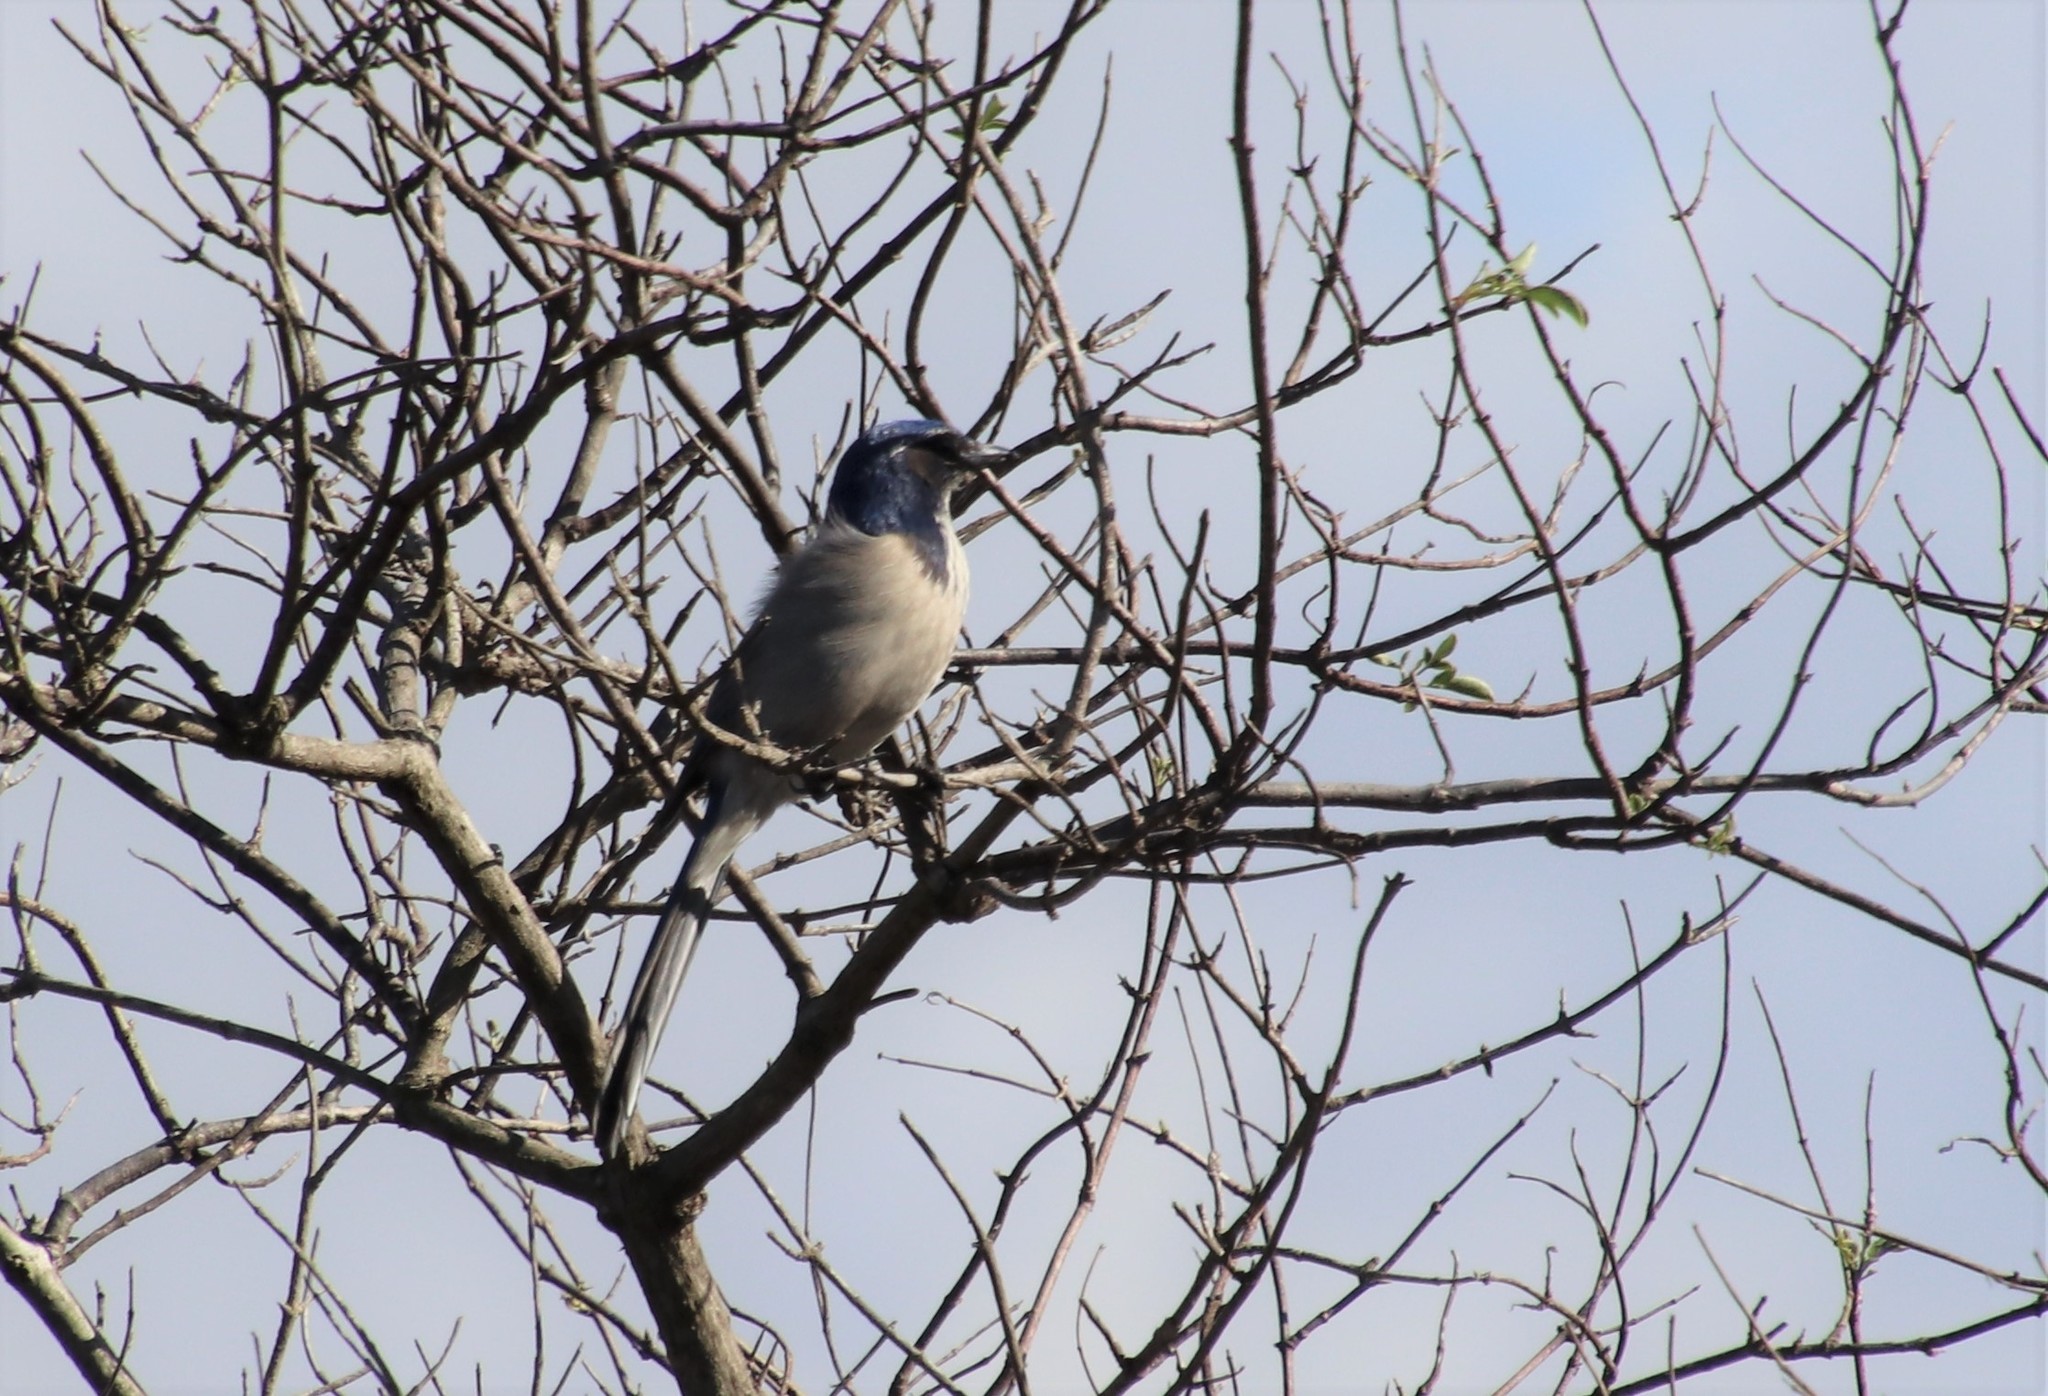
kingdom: Animalia
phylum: Chordata
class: Aves
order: Passeriformes
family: Corvidae
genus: Aphelocoma
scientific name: Aphelocoma californica
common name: California scrub-jay
